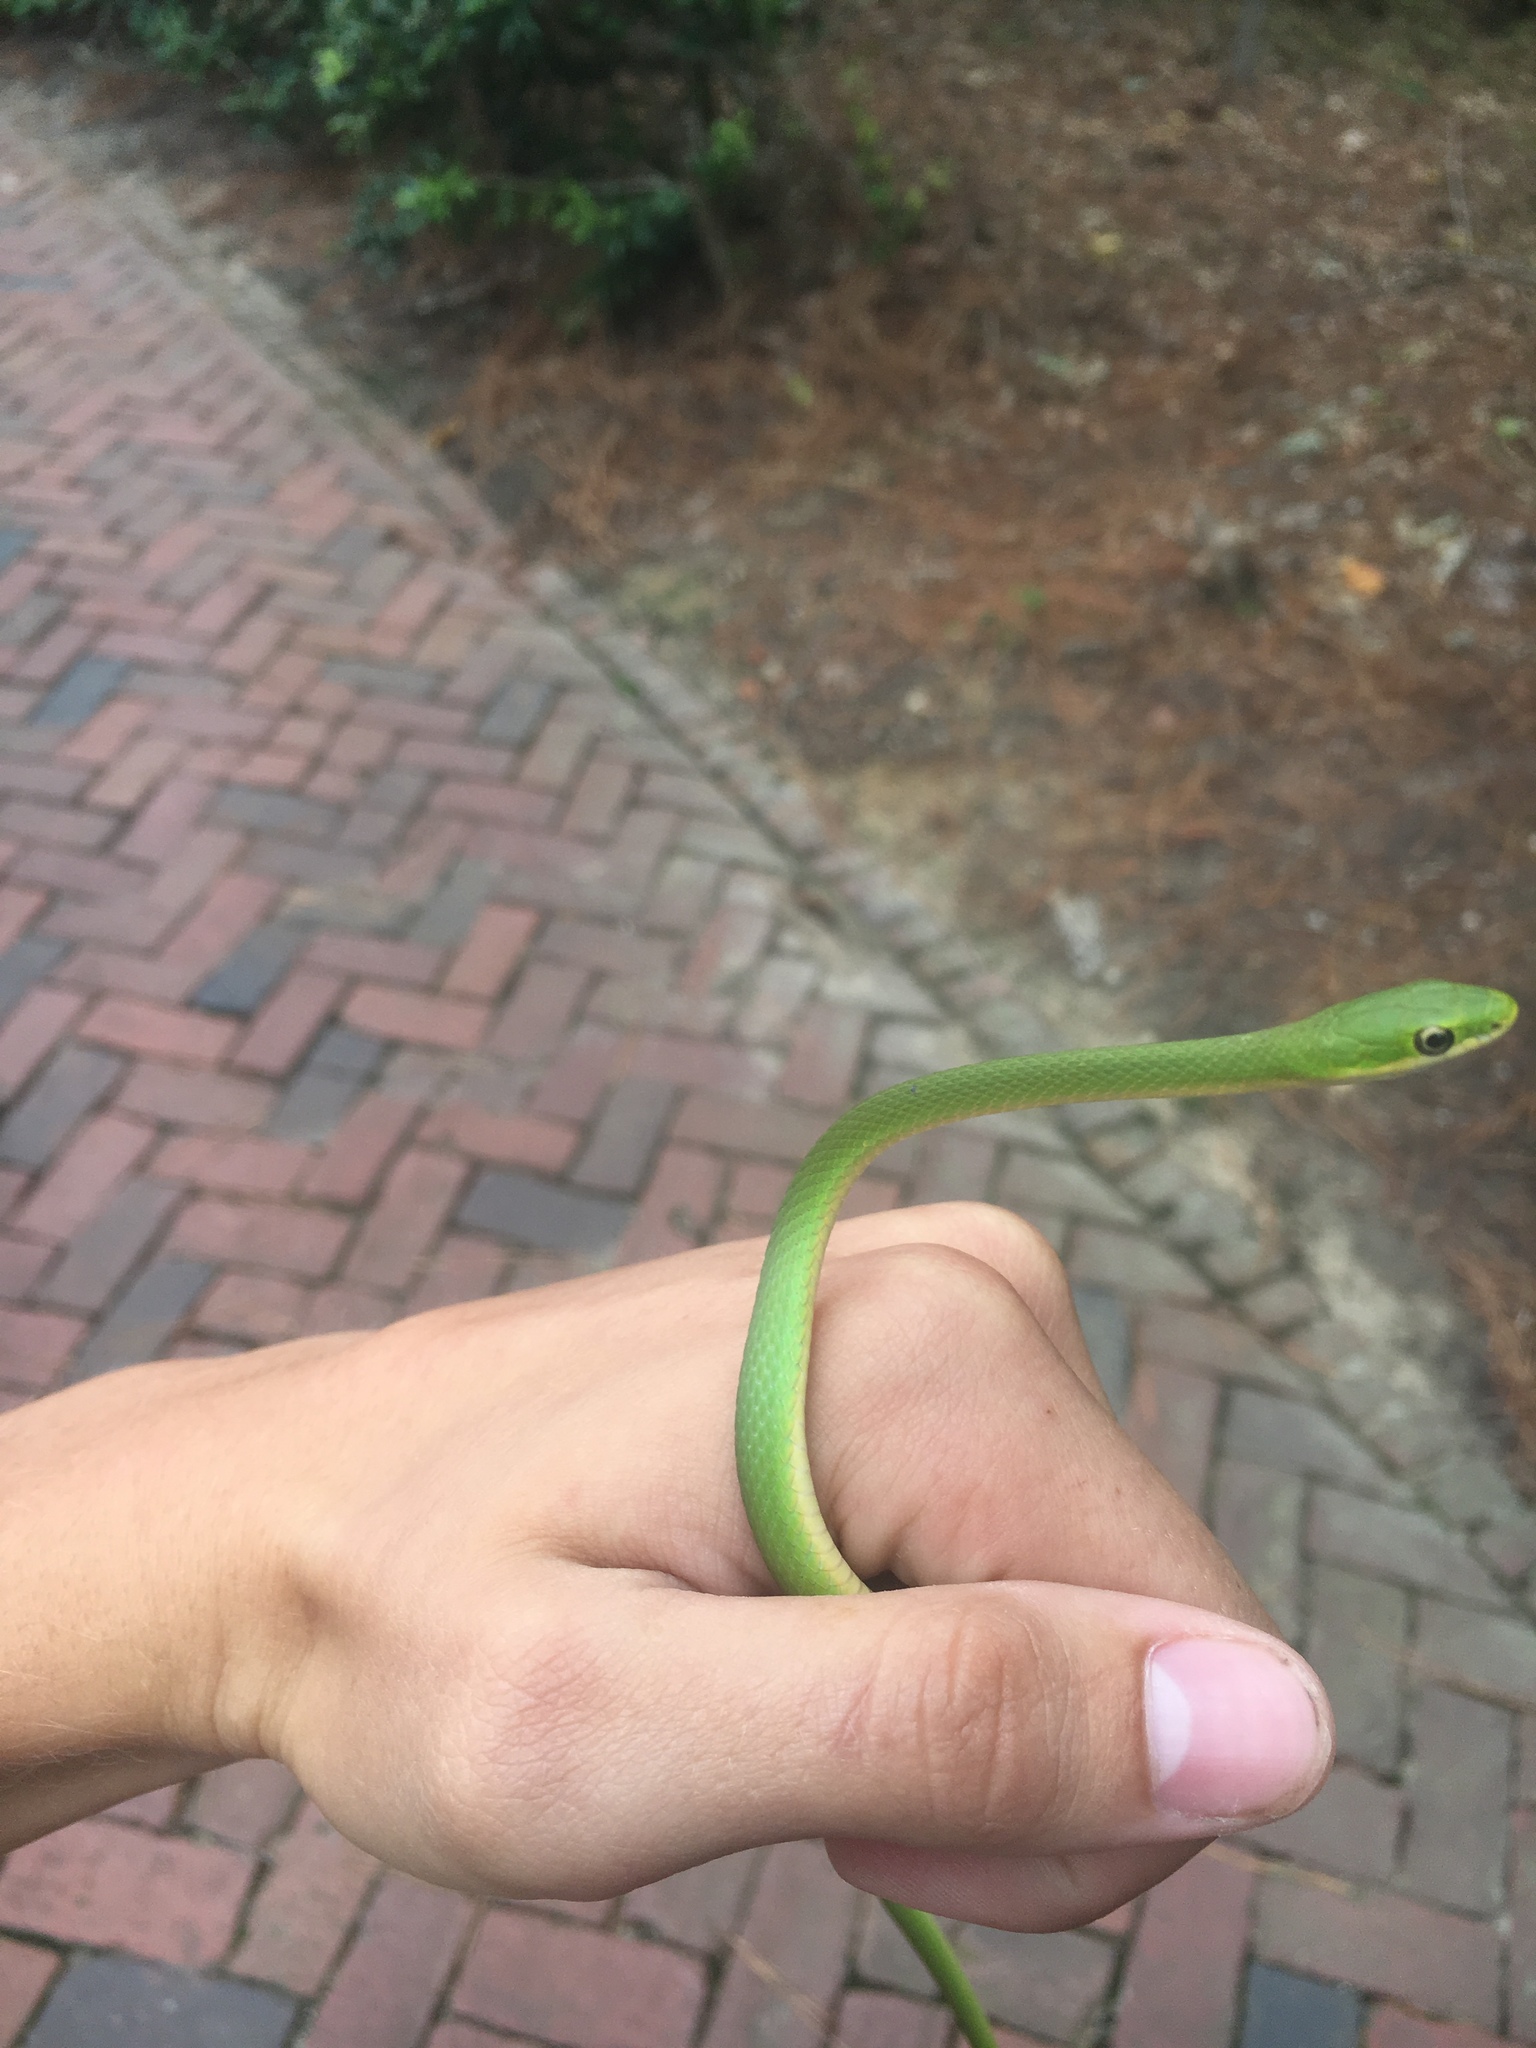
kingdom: Animalia
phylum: Chordata
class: Squamata
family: Colubridae
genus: Opheodrys
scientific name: Opheodrys aestivus
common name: Rough greensnake
